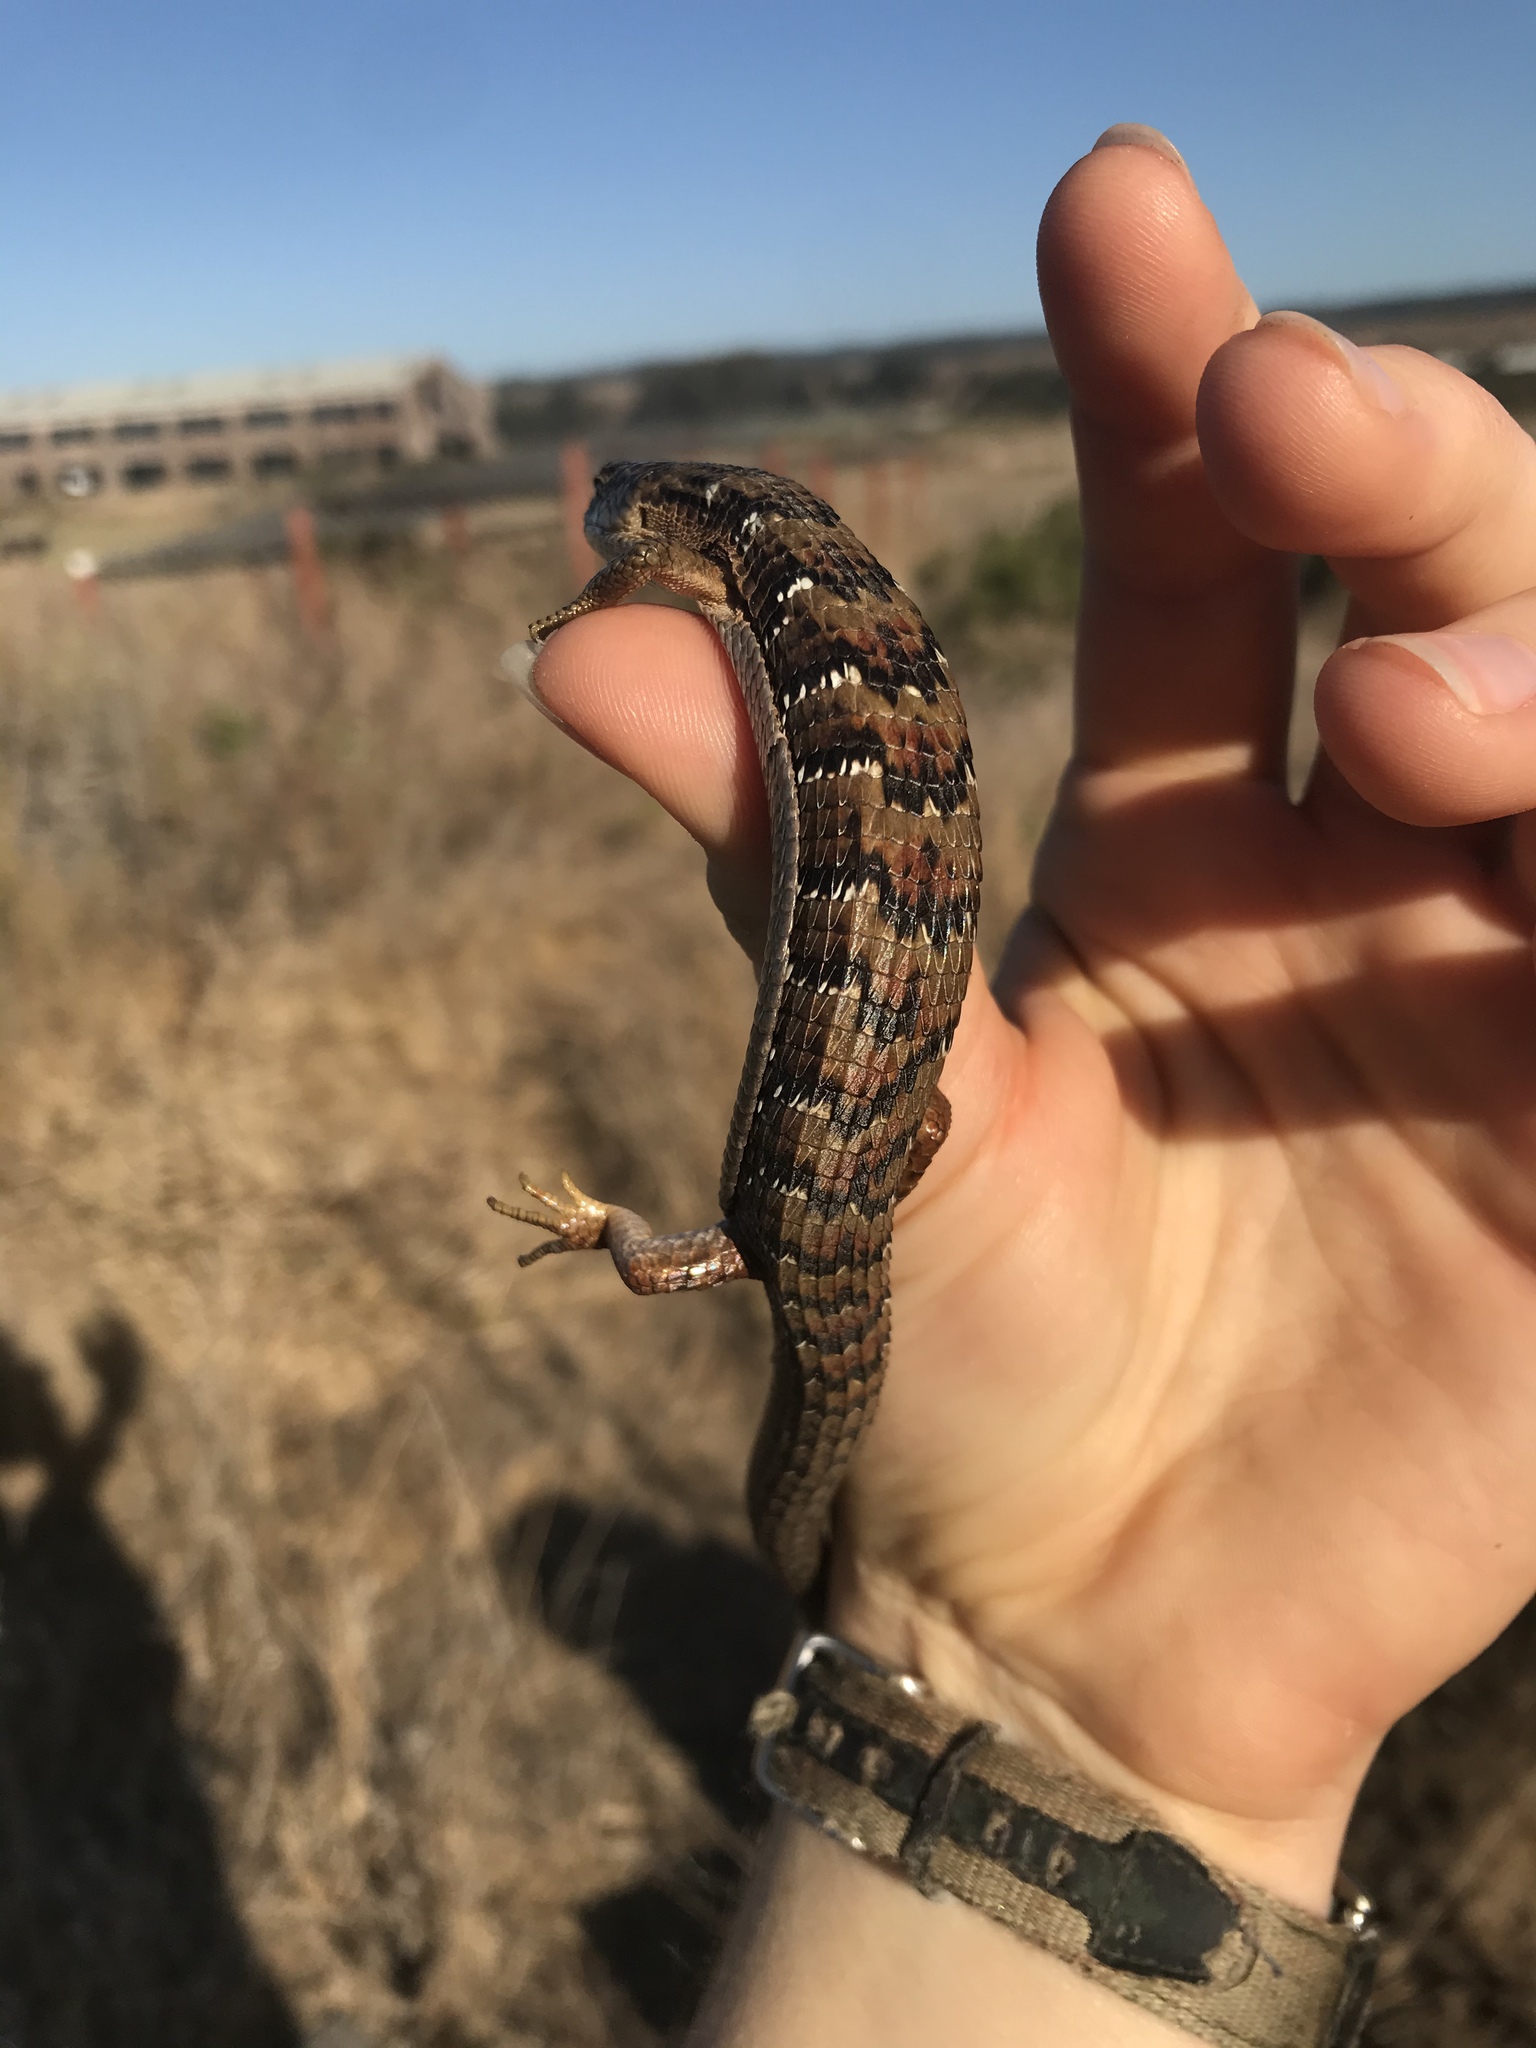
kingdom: Animalia
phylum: Chordata
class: Squamata
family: Anguidae
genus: Elgaria
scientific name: Elgaria multicarinata
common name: Southern alligator lizard
